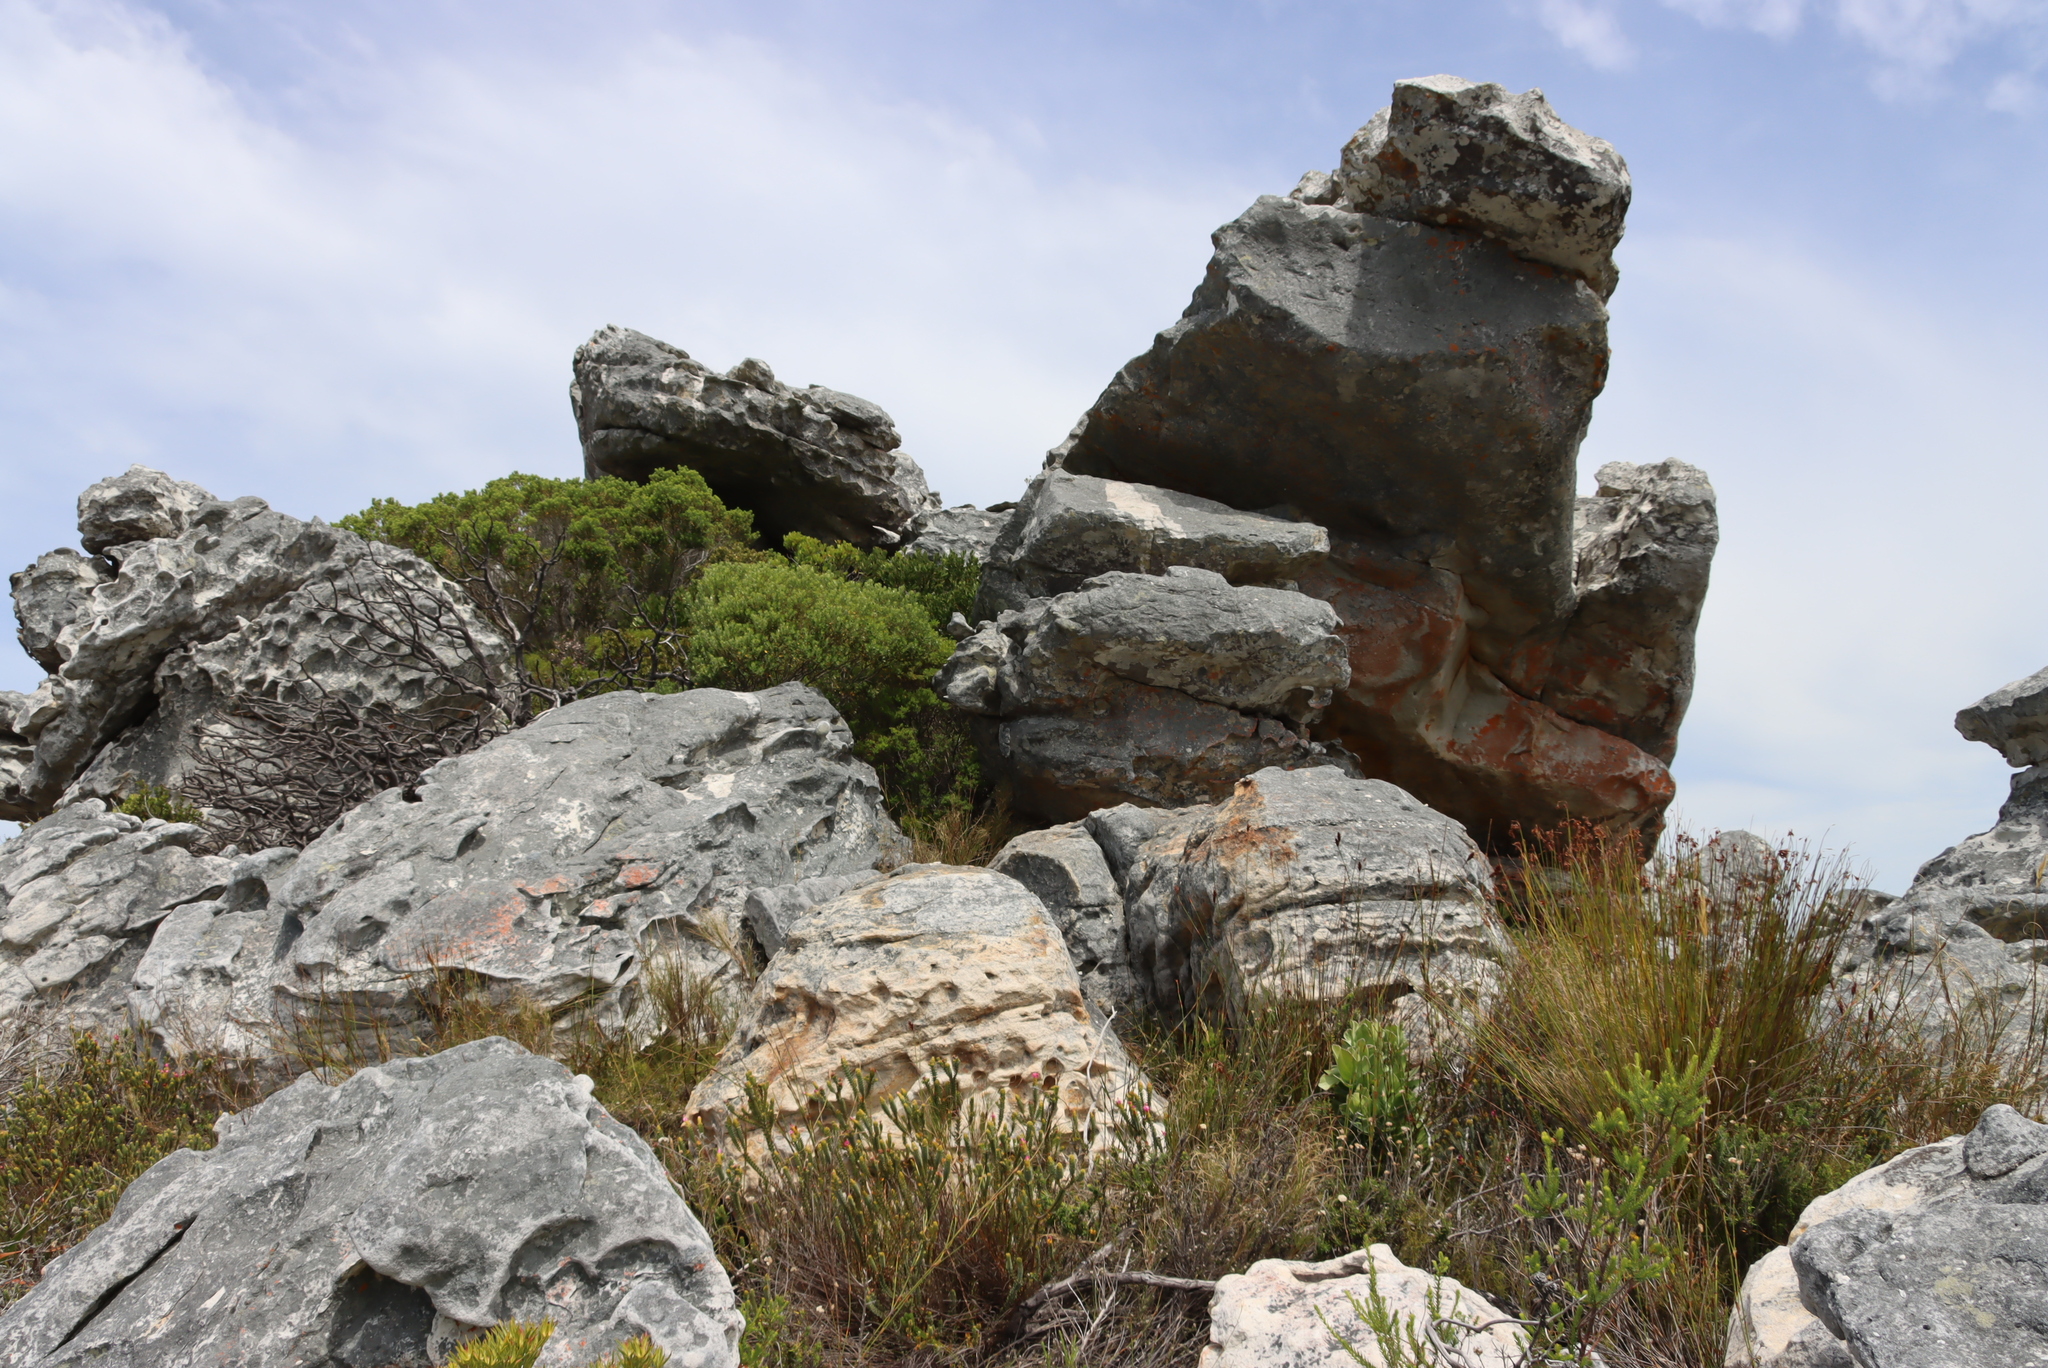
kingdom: Plantae
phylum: Tracheophyta
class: Magnoliopsida
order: Rosales
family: Rhamnaceae
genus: Phylica
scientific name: Phylica buxifolia
